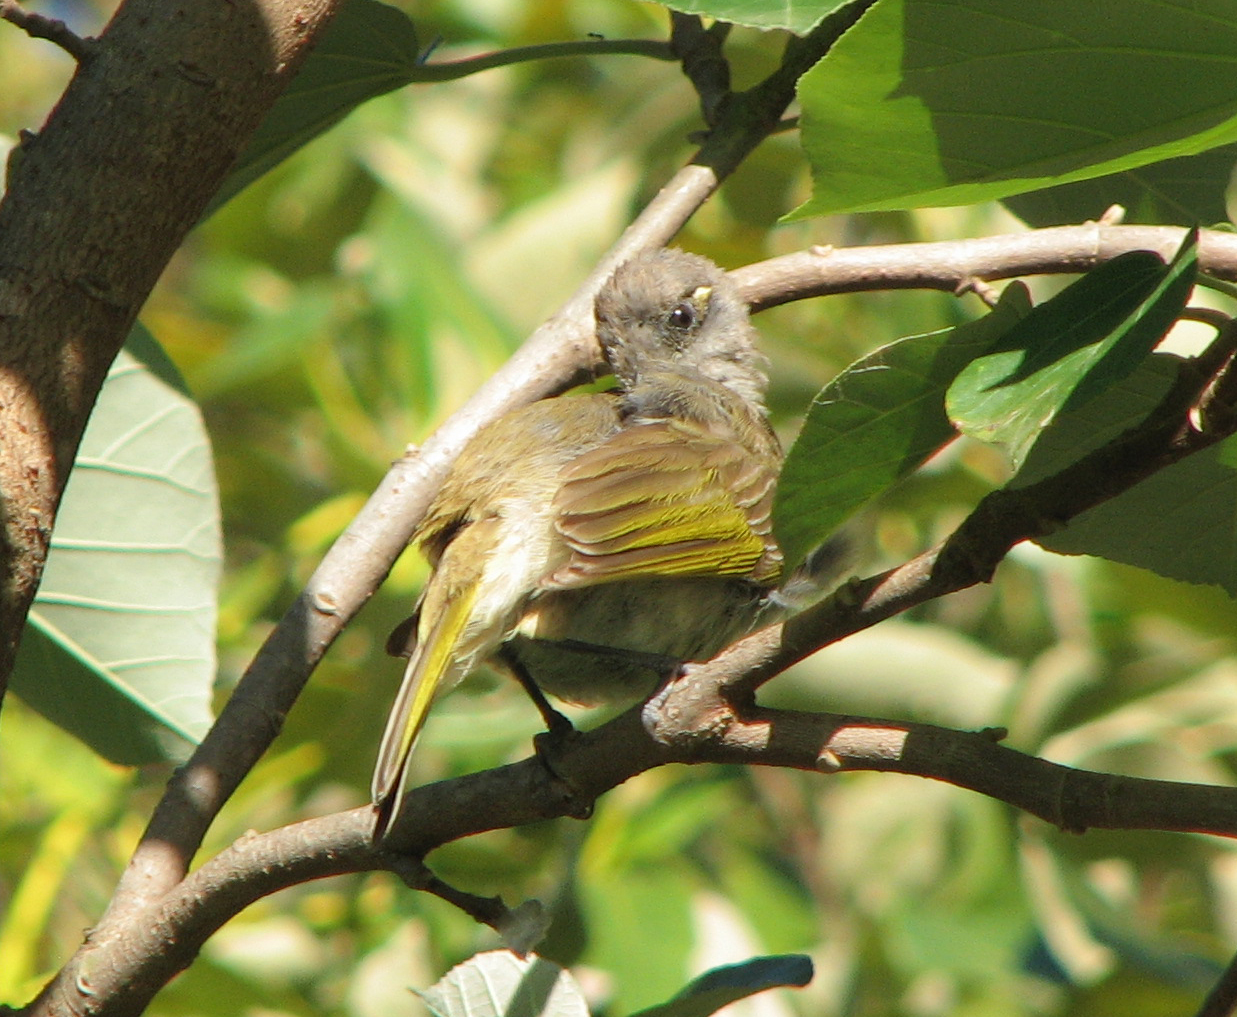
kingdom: Animalia
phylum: Chordata
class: Aves
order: Passeriformes
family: Meliphagidae
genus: Lichmera
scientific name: Lichmera indistincta
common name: Brown honeyeater
